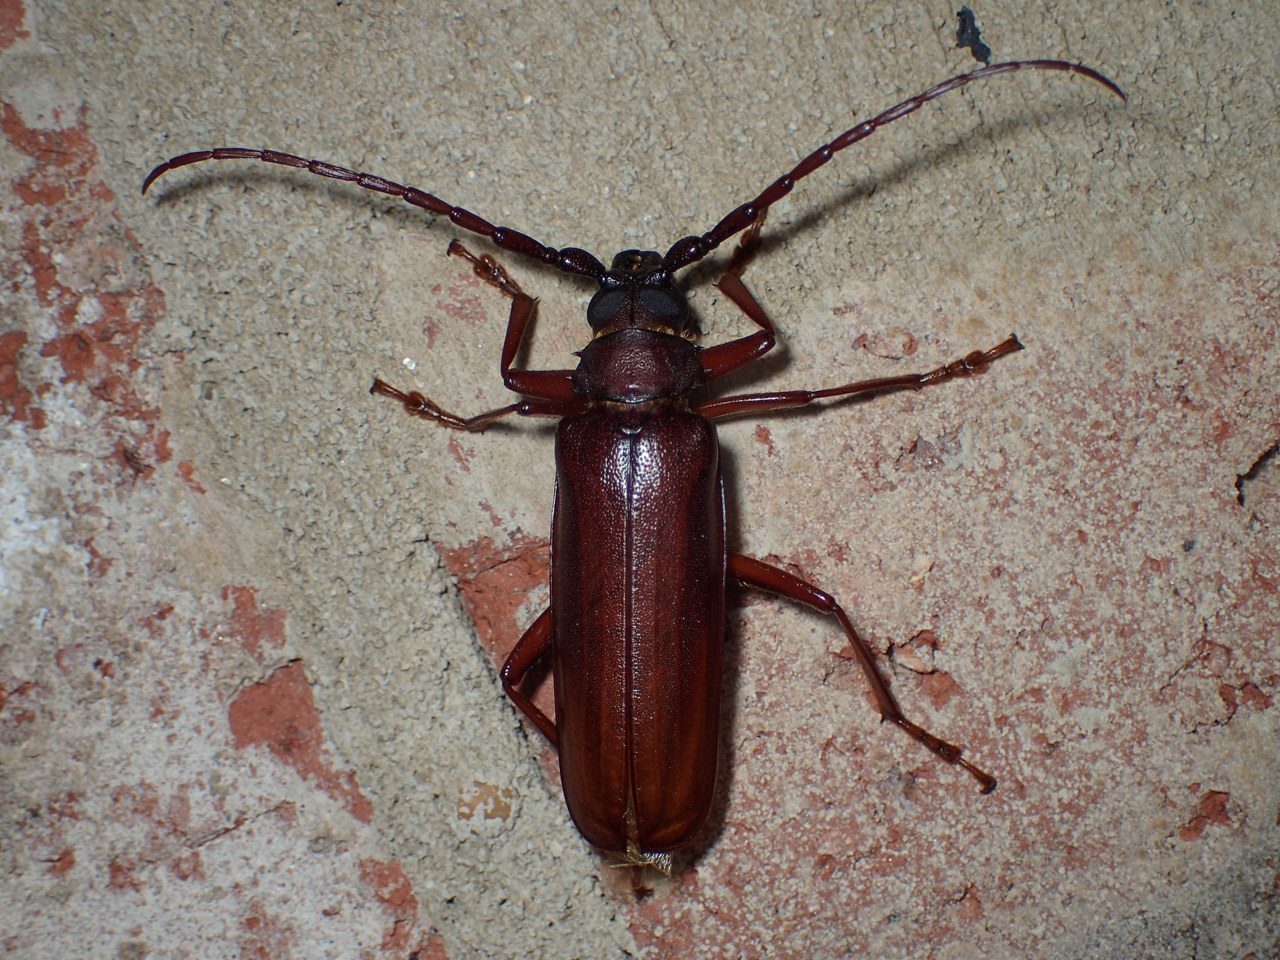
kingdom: Animalia
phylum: Arthropoda
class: Insecta
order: Coleoptera
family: Cerambycidae
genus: Orthosoma
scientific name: Orthosoma brunneum
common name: Brown prionid beetle
